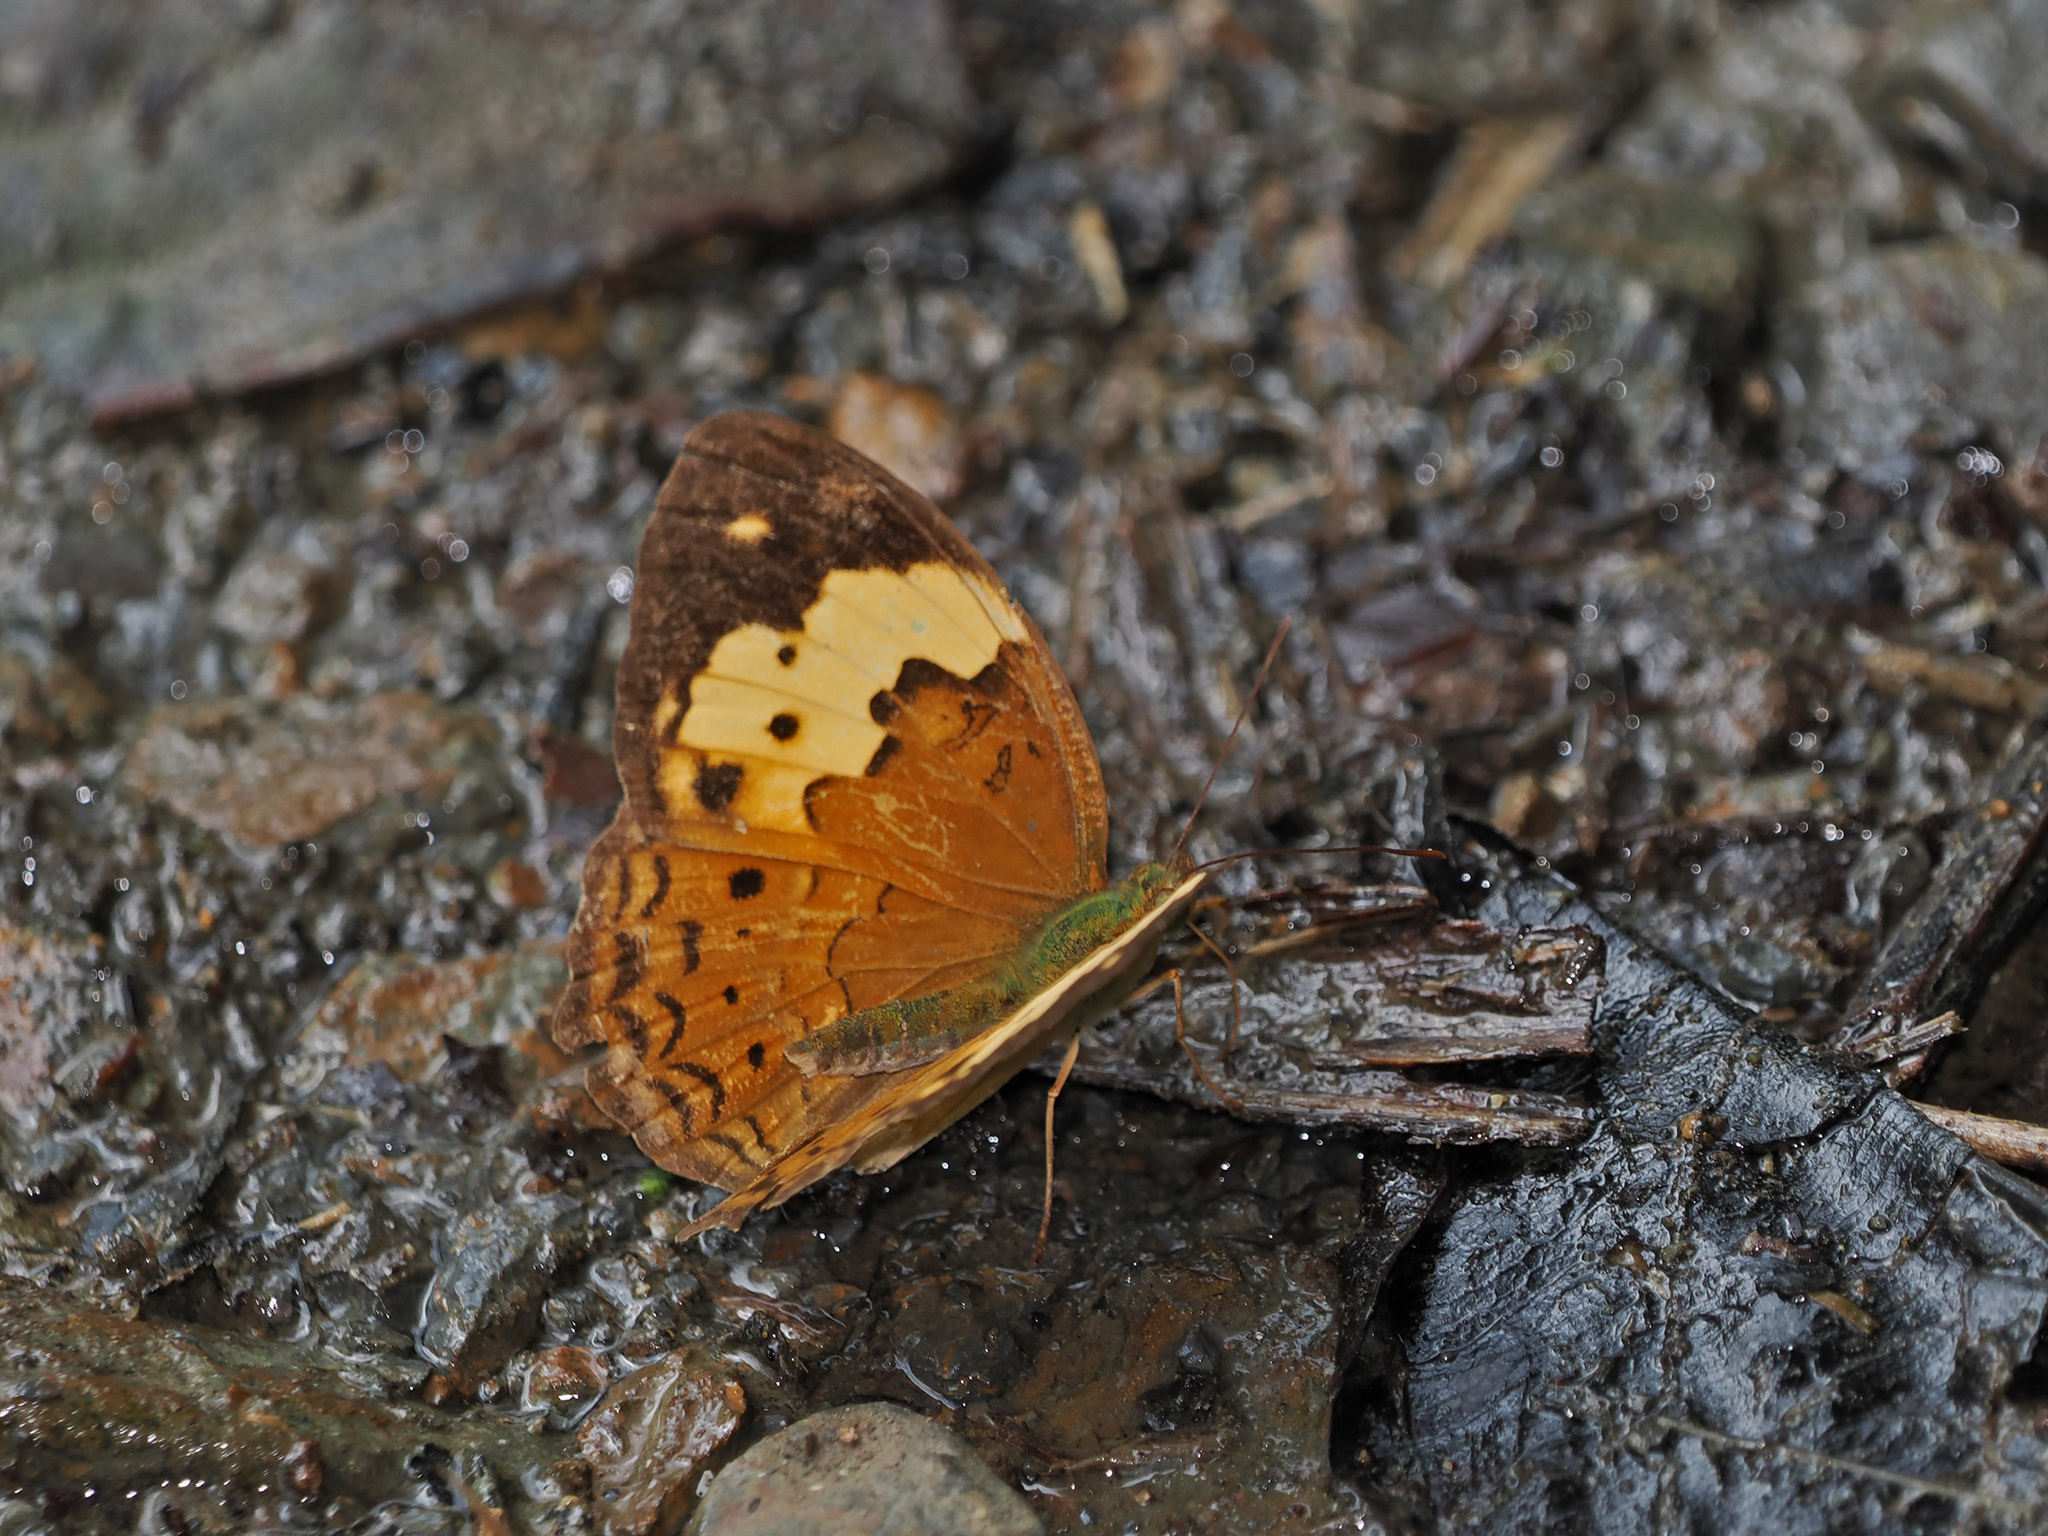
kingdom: Animalia
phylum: Arthropoda
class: Insecta
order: Lepidoptera
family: Nymphalidae
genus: Cupha
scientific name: Cupha erymanthis
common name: Rustic
